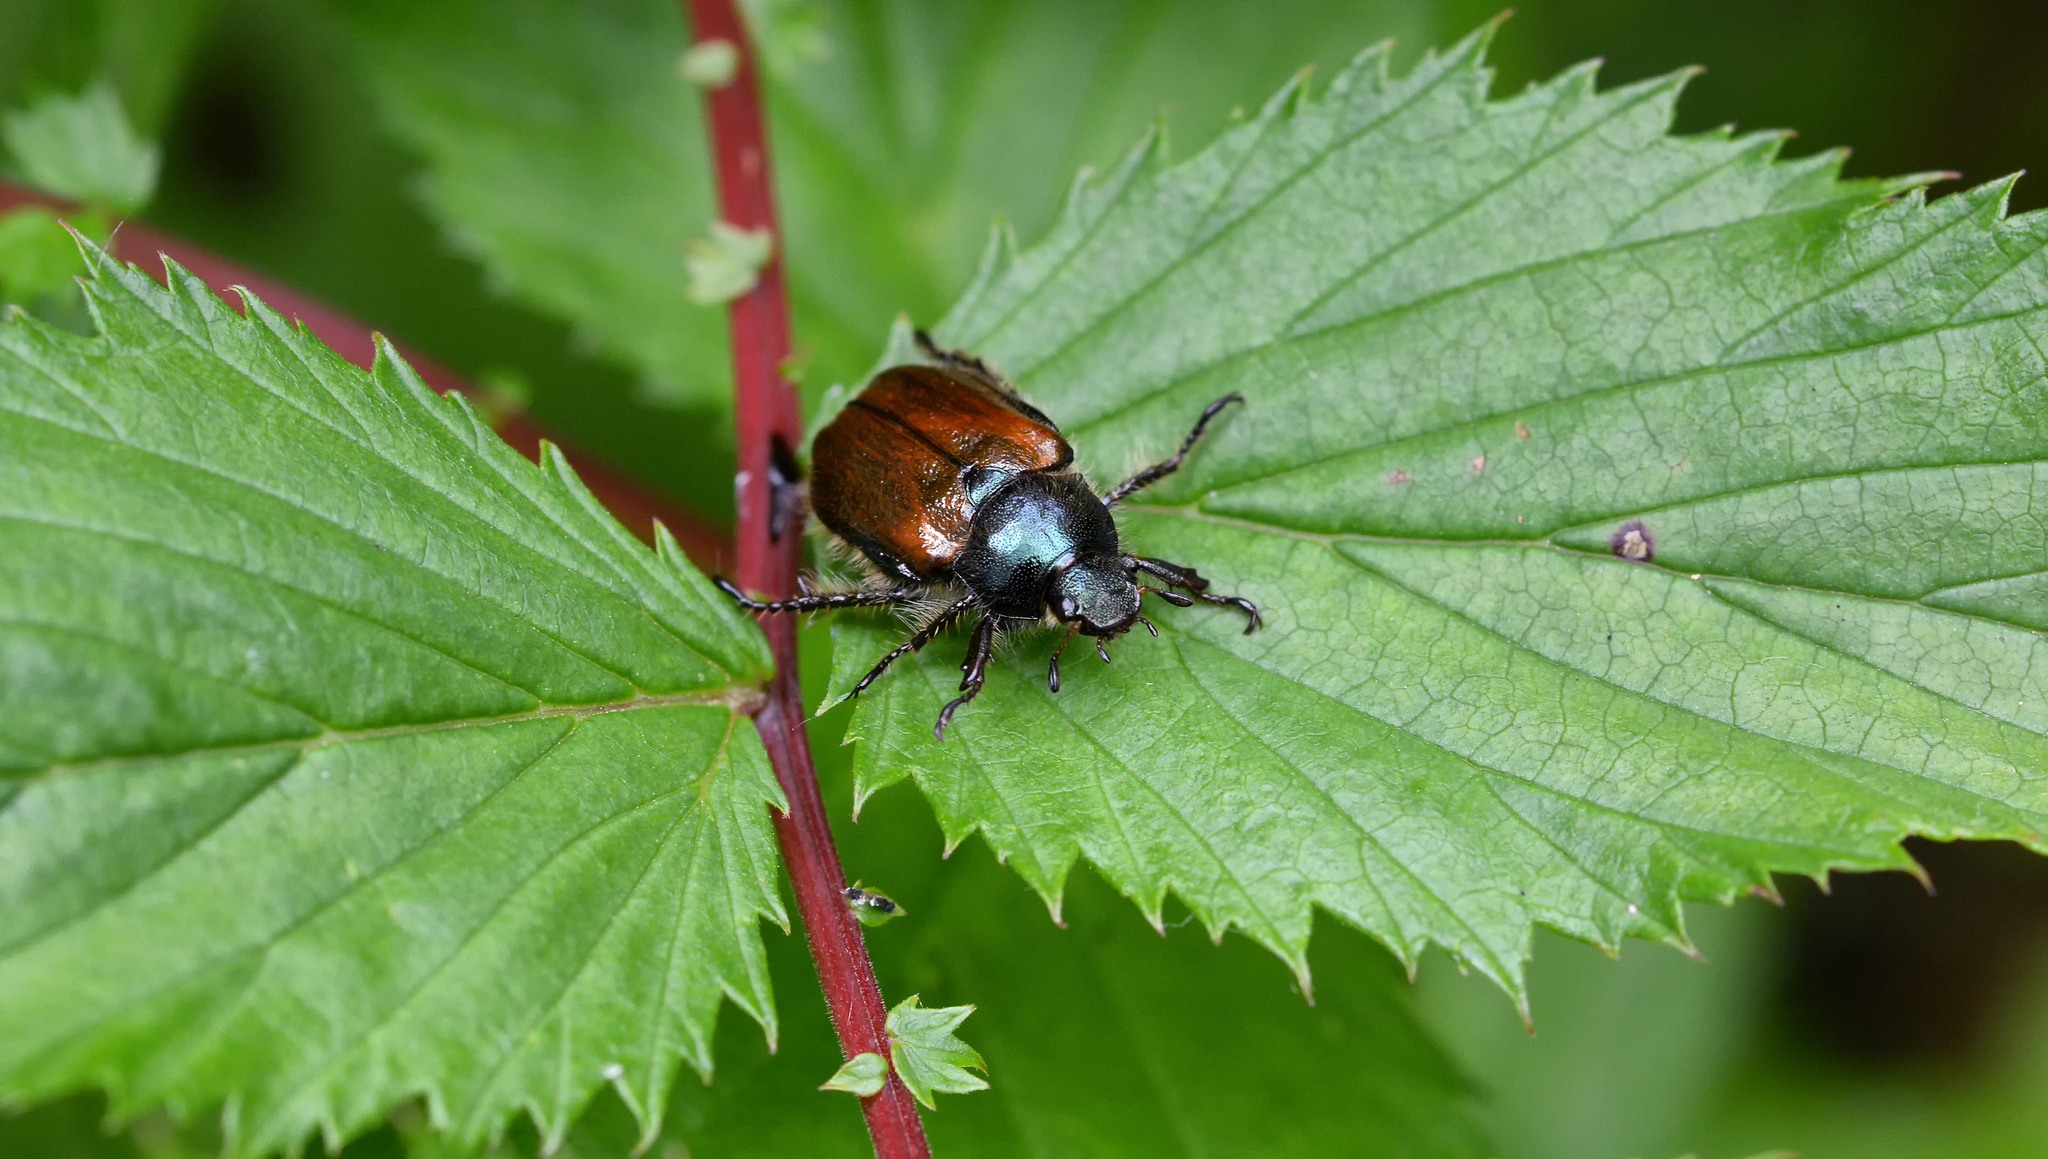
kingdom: Animalia
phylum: Arthropoda
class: Insecta
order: Coleoptera
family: Scarabaeidae
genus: Phyllopertha
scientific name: Phyllopertha horticola
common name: Garden chafer
